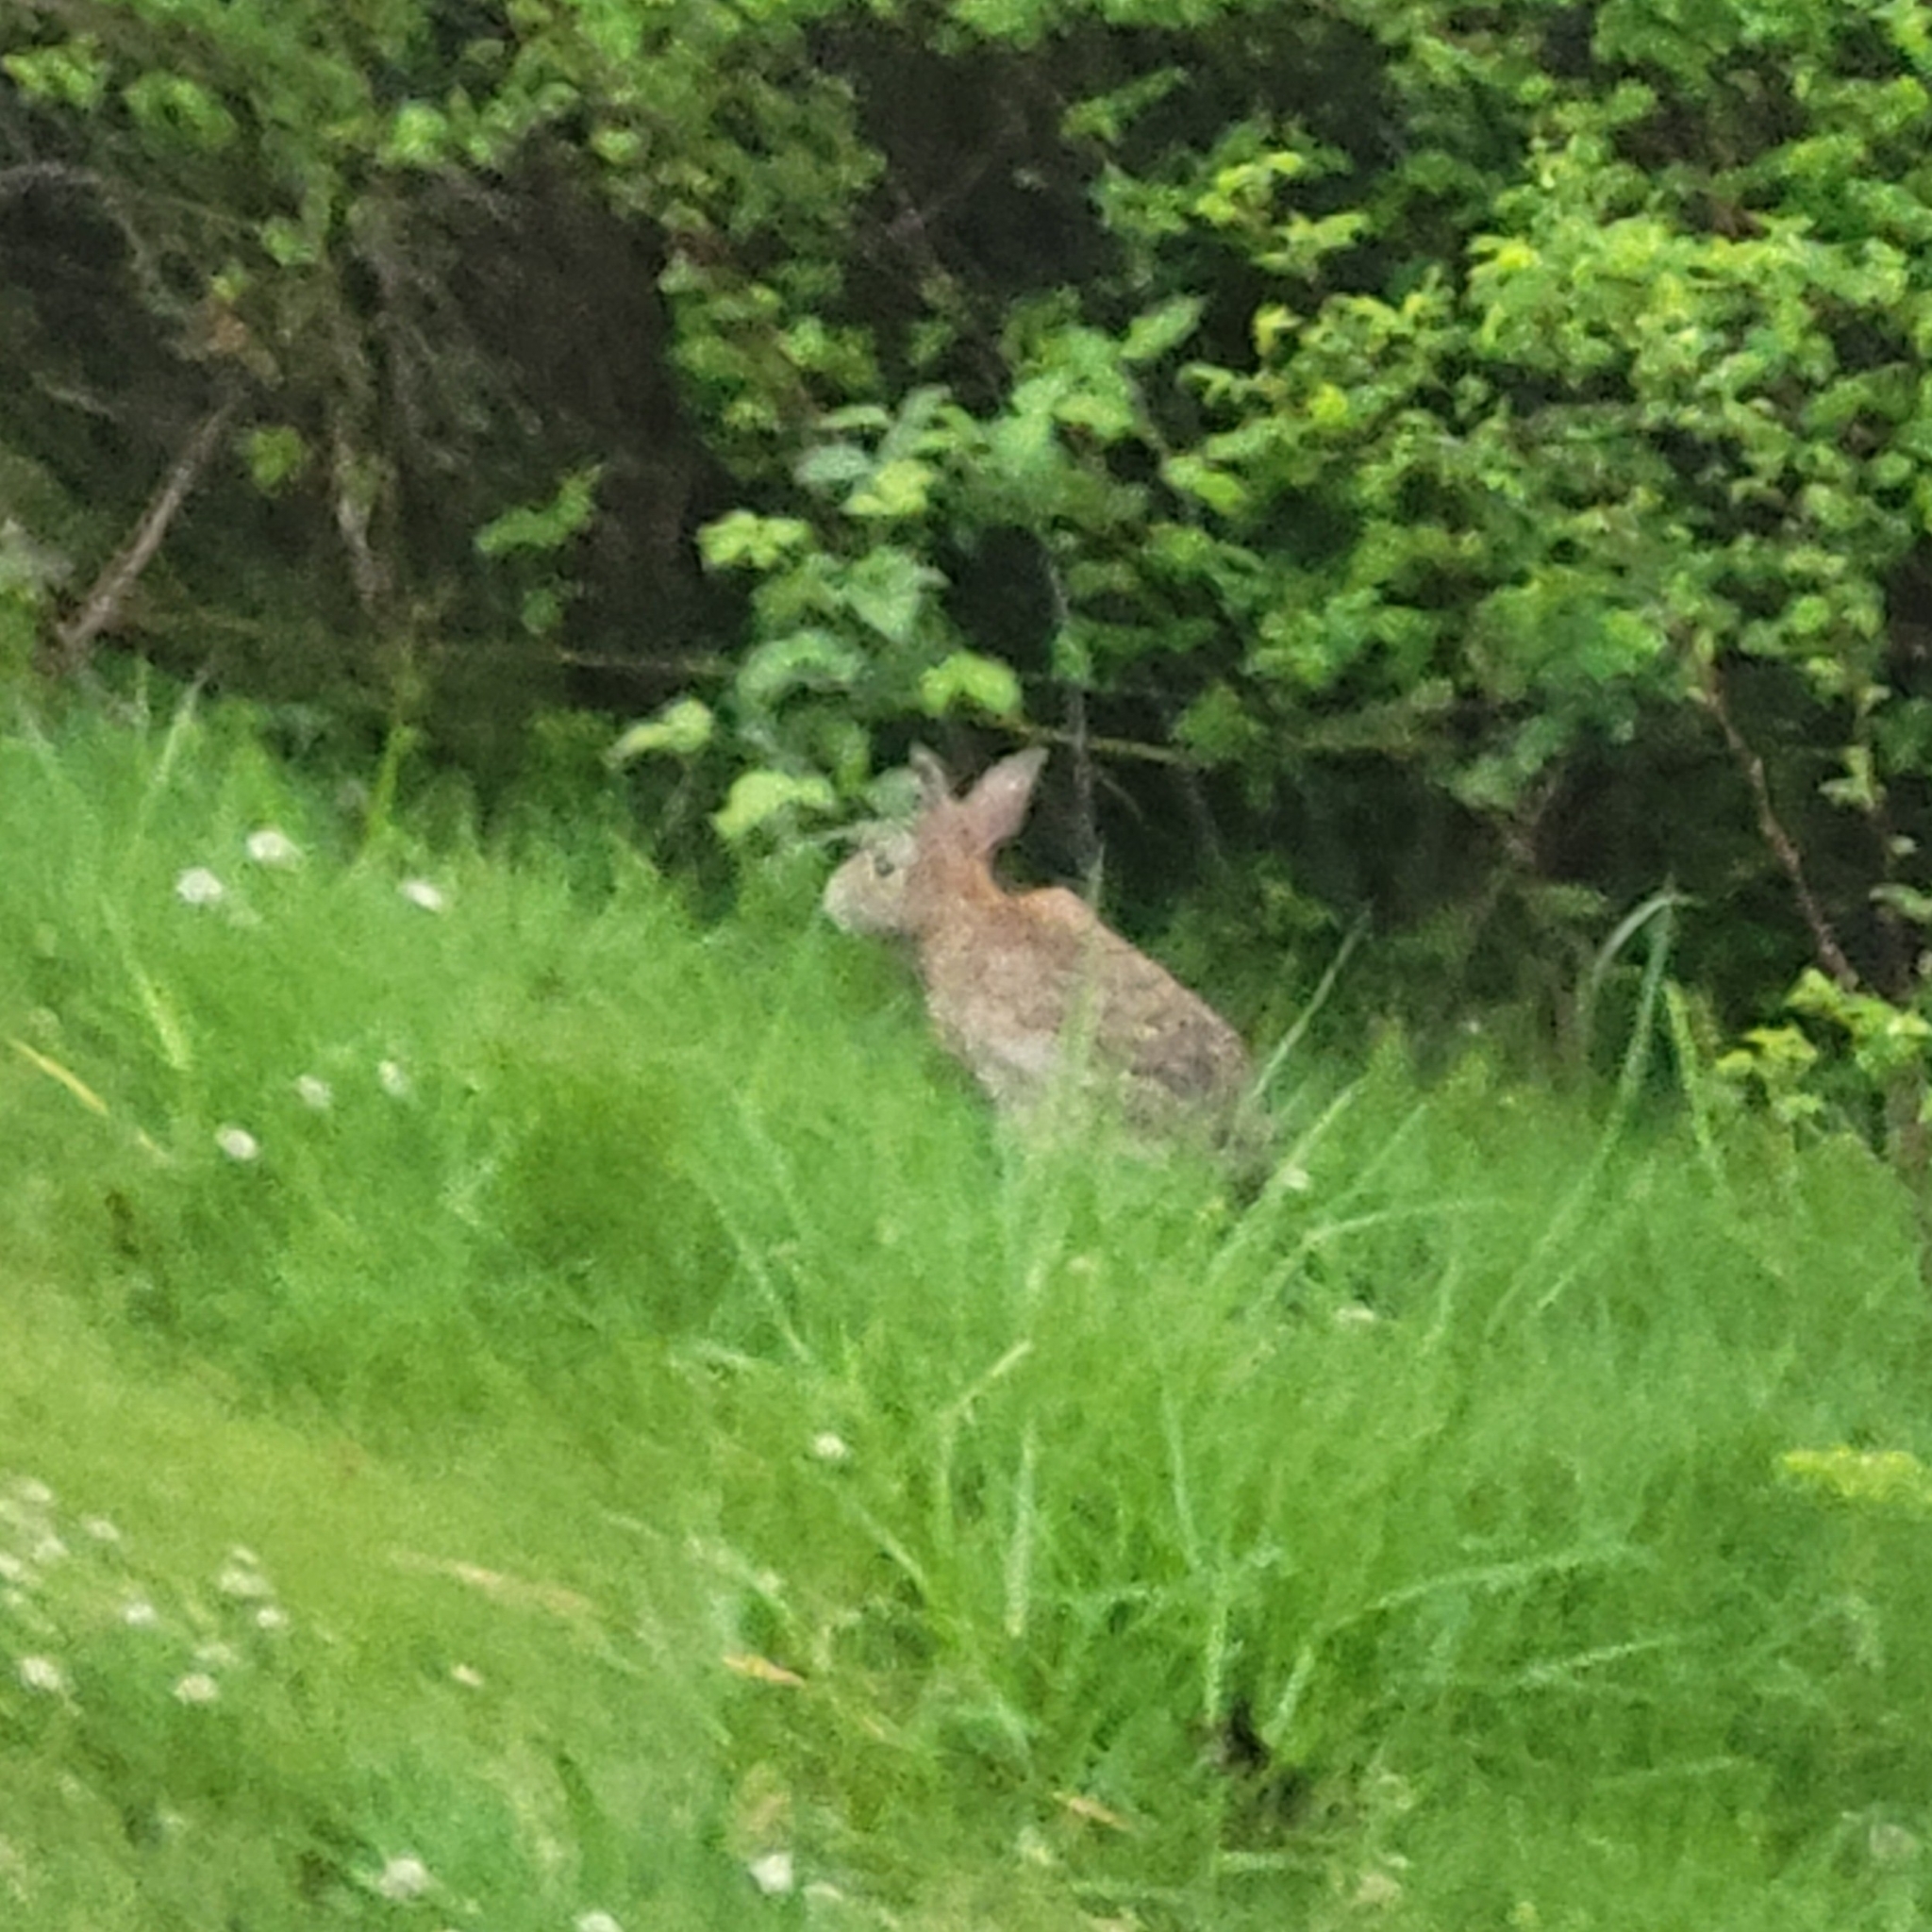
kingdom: Animalia
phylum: Chordata
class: Mammalia
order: Lagomorpha
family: Leporidae
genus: Sylvilagus
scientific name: Sylvilagus floridanus
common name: Eastern cottontail
